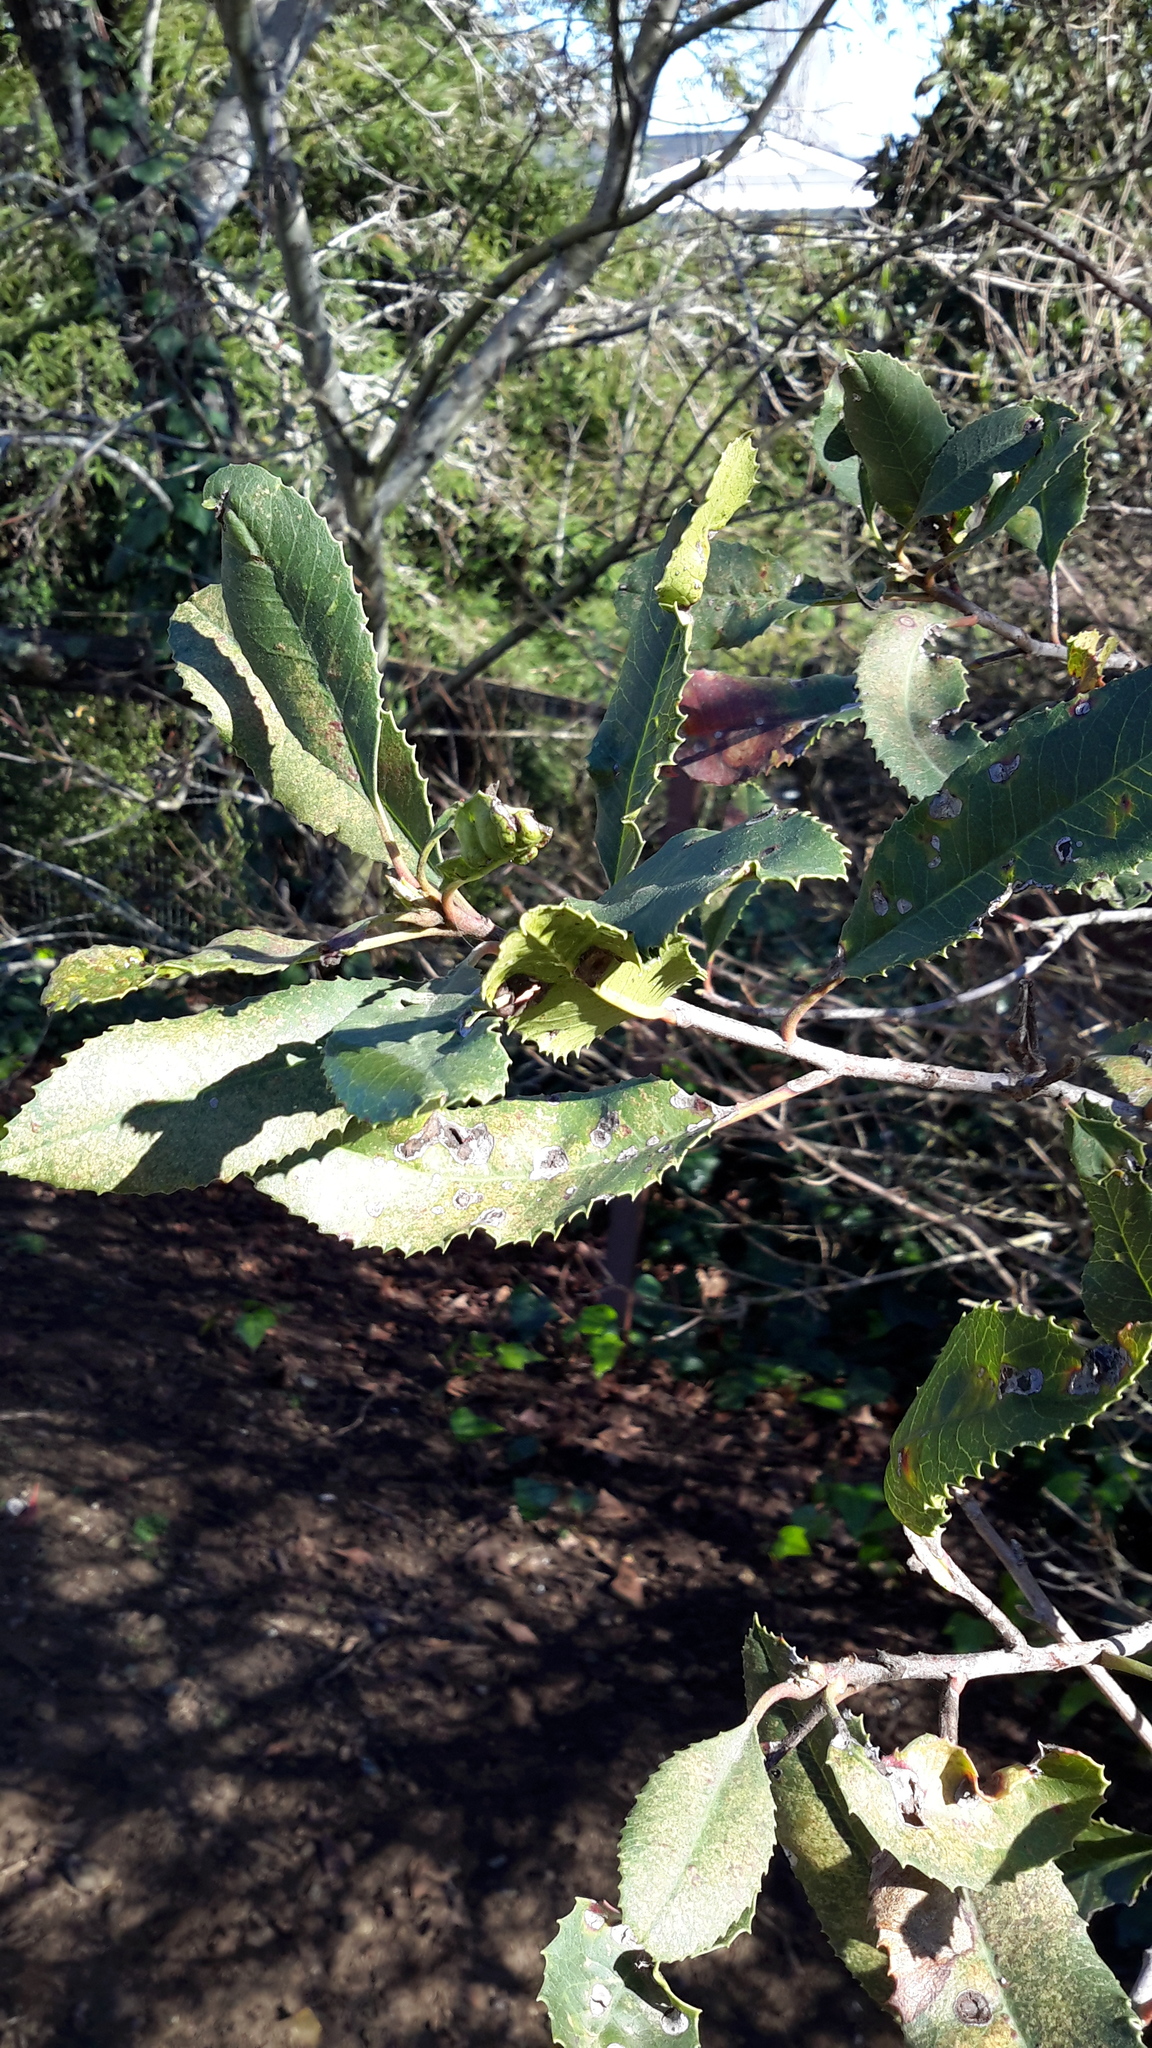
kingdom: Plantae
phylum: Tracheophyta
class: Magnoliopsida
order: Rosales
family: Rosaceae
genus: Heteromeles
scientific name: Heteromeles arbutifolia
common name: California-holly
